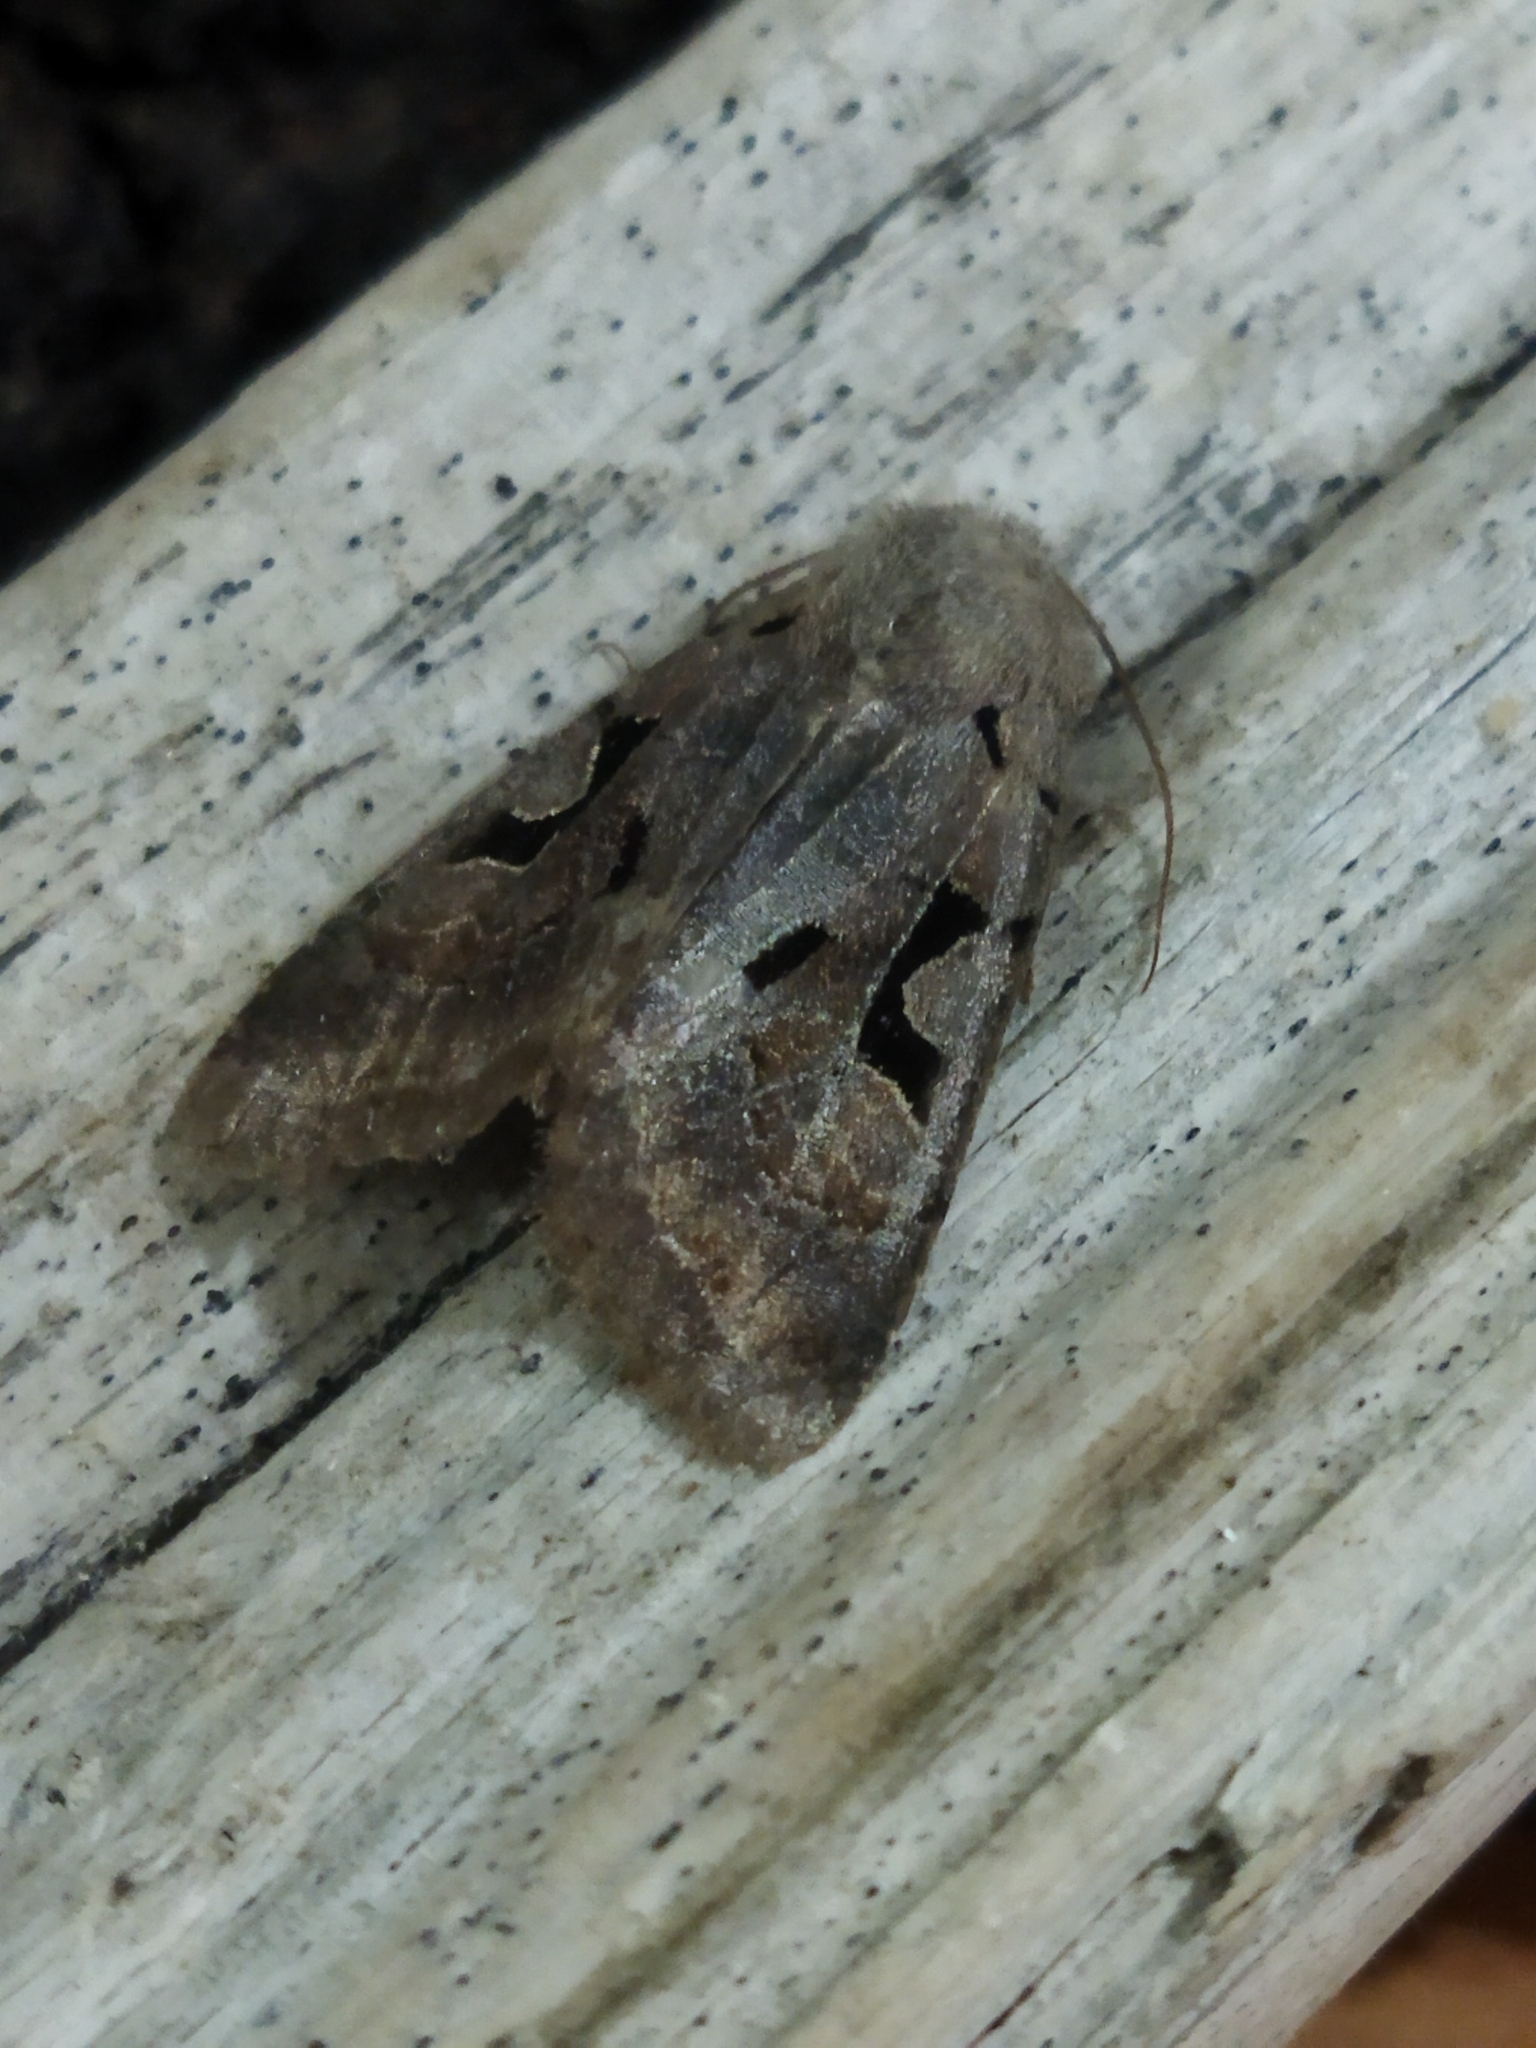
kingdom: Animalia
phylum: Arthropoda
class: Insecta
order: Lepidoptera
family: Noctuidae
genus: Orthosia
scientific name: Orthosia gothica
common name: Hebrew character
